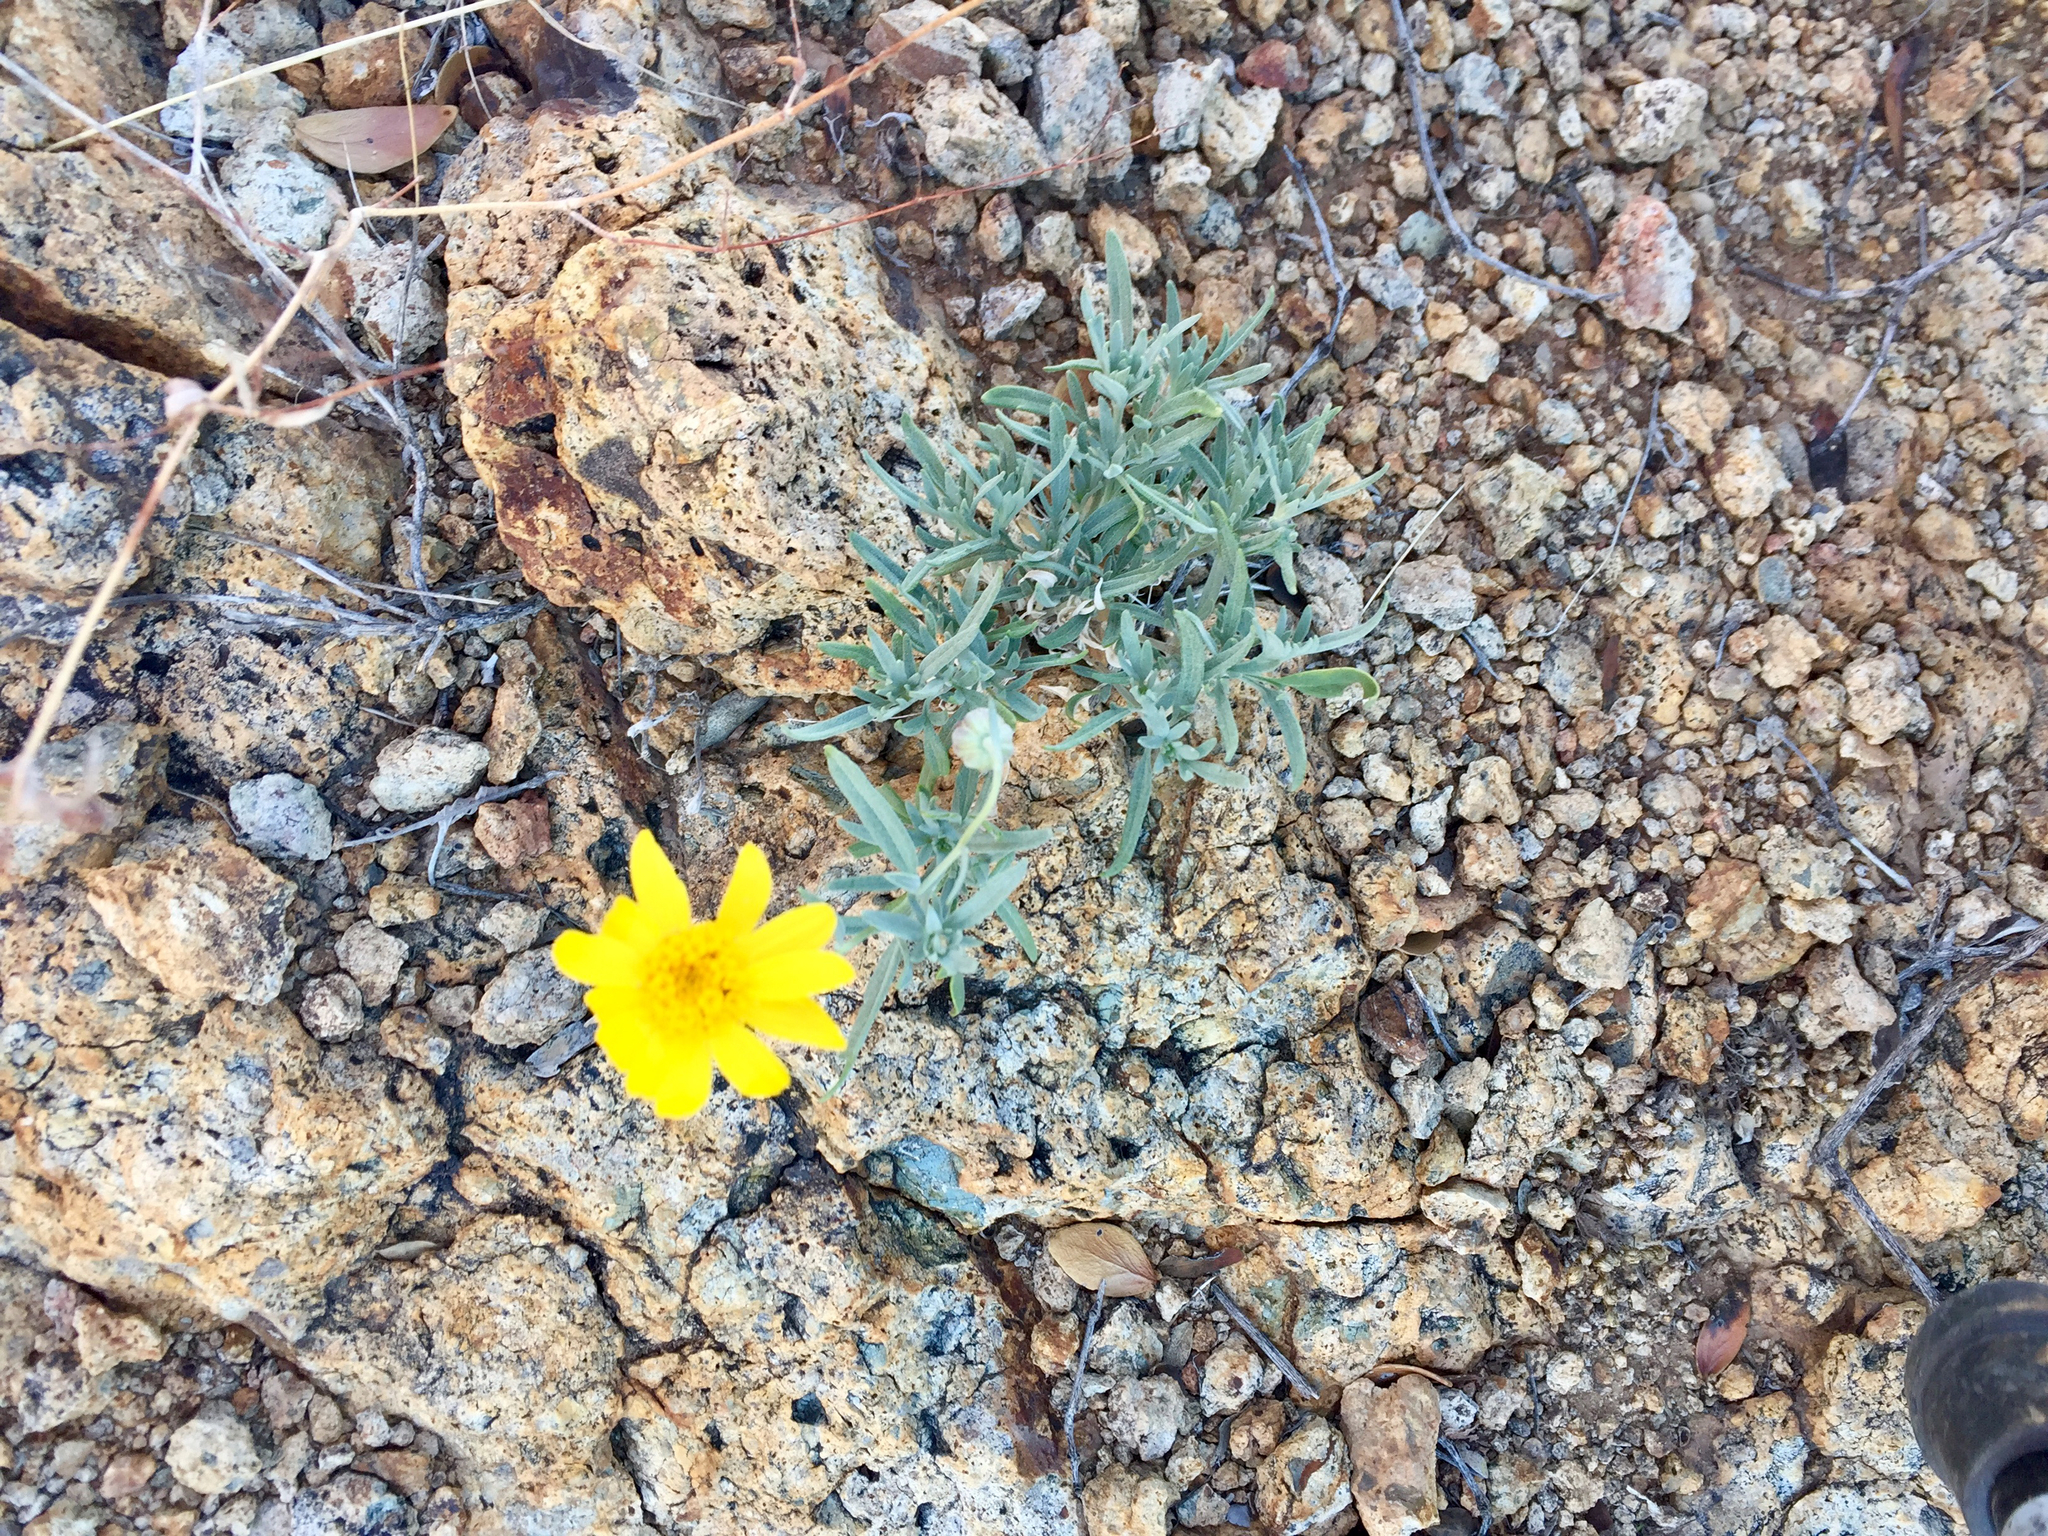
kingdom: Plantae
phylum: Tracheophyta
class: Magnoliopsida
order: Asterales
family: Asteraceae
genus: Picradeniopsis
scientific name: Picradeniopsis absinthifolia
